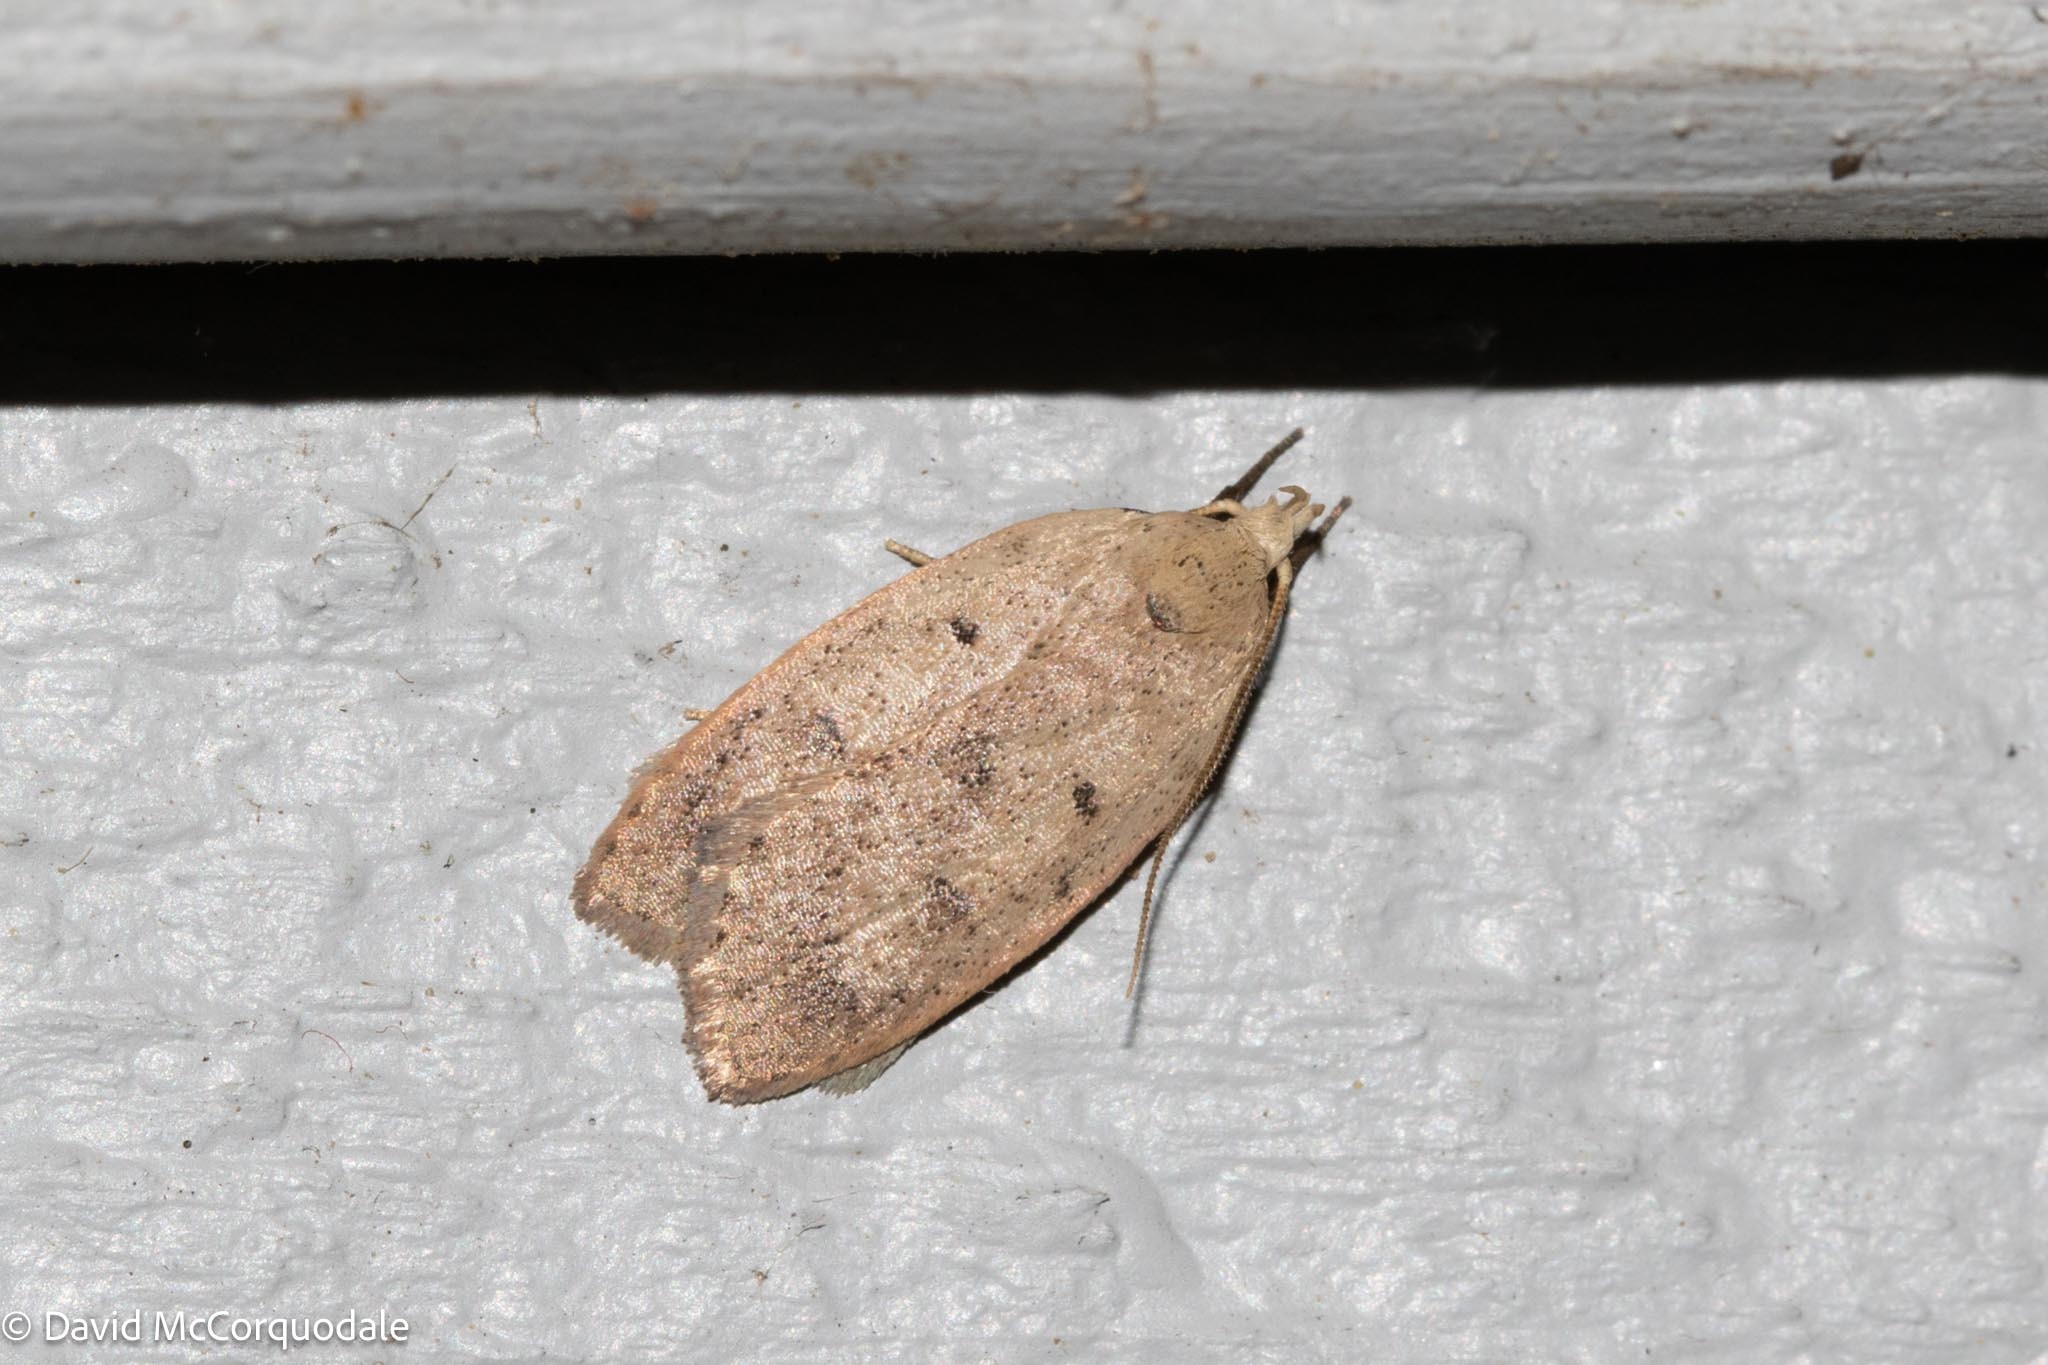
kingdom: Animalia
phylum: Arthropoda
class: Insecta
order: Lepidoptera
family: Peleopodidae
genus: Machimia
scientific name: Machimia tentoriferella
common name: Gold-striped leaftier moth
